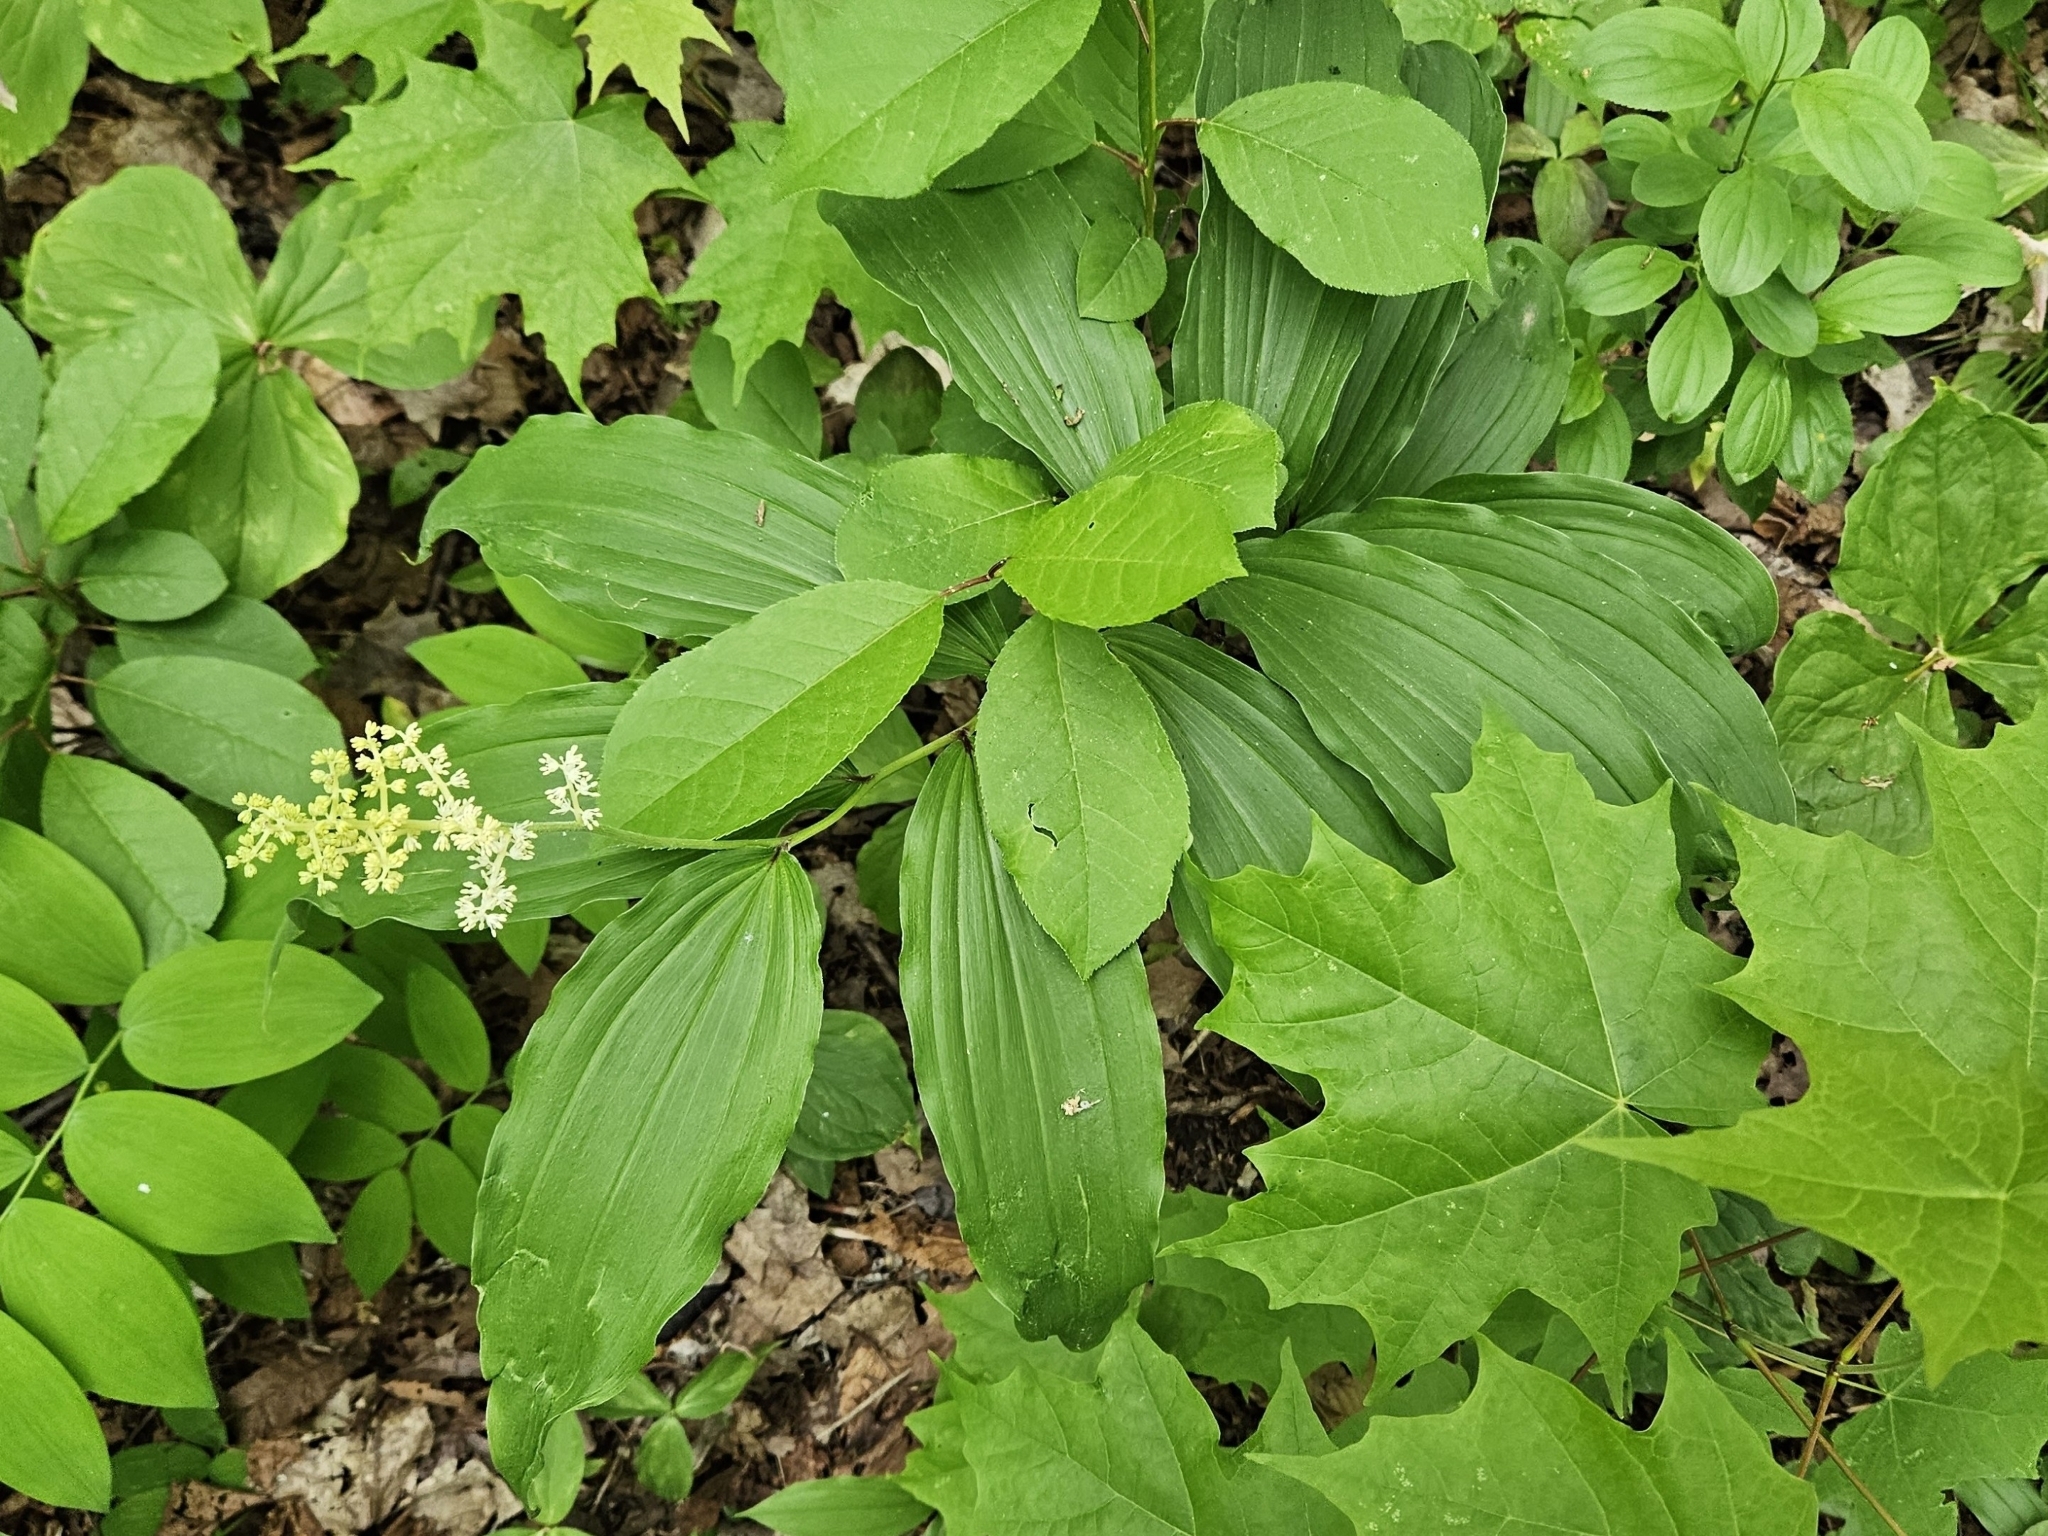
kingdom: Plantae
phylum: Tracheophyta
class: Liliopsida
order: Asparagales
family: Asparagaceae
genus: Maianthemum
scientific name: Maianthemum racemosum
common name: False spikenard
